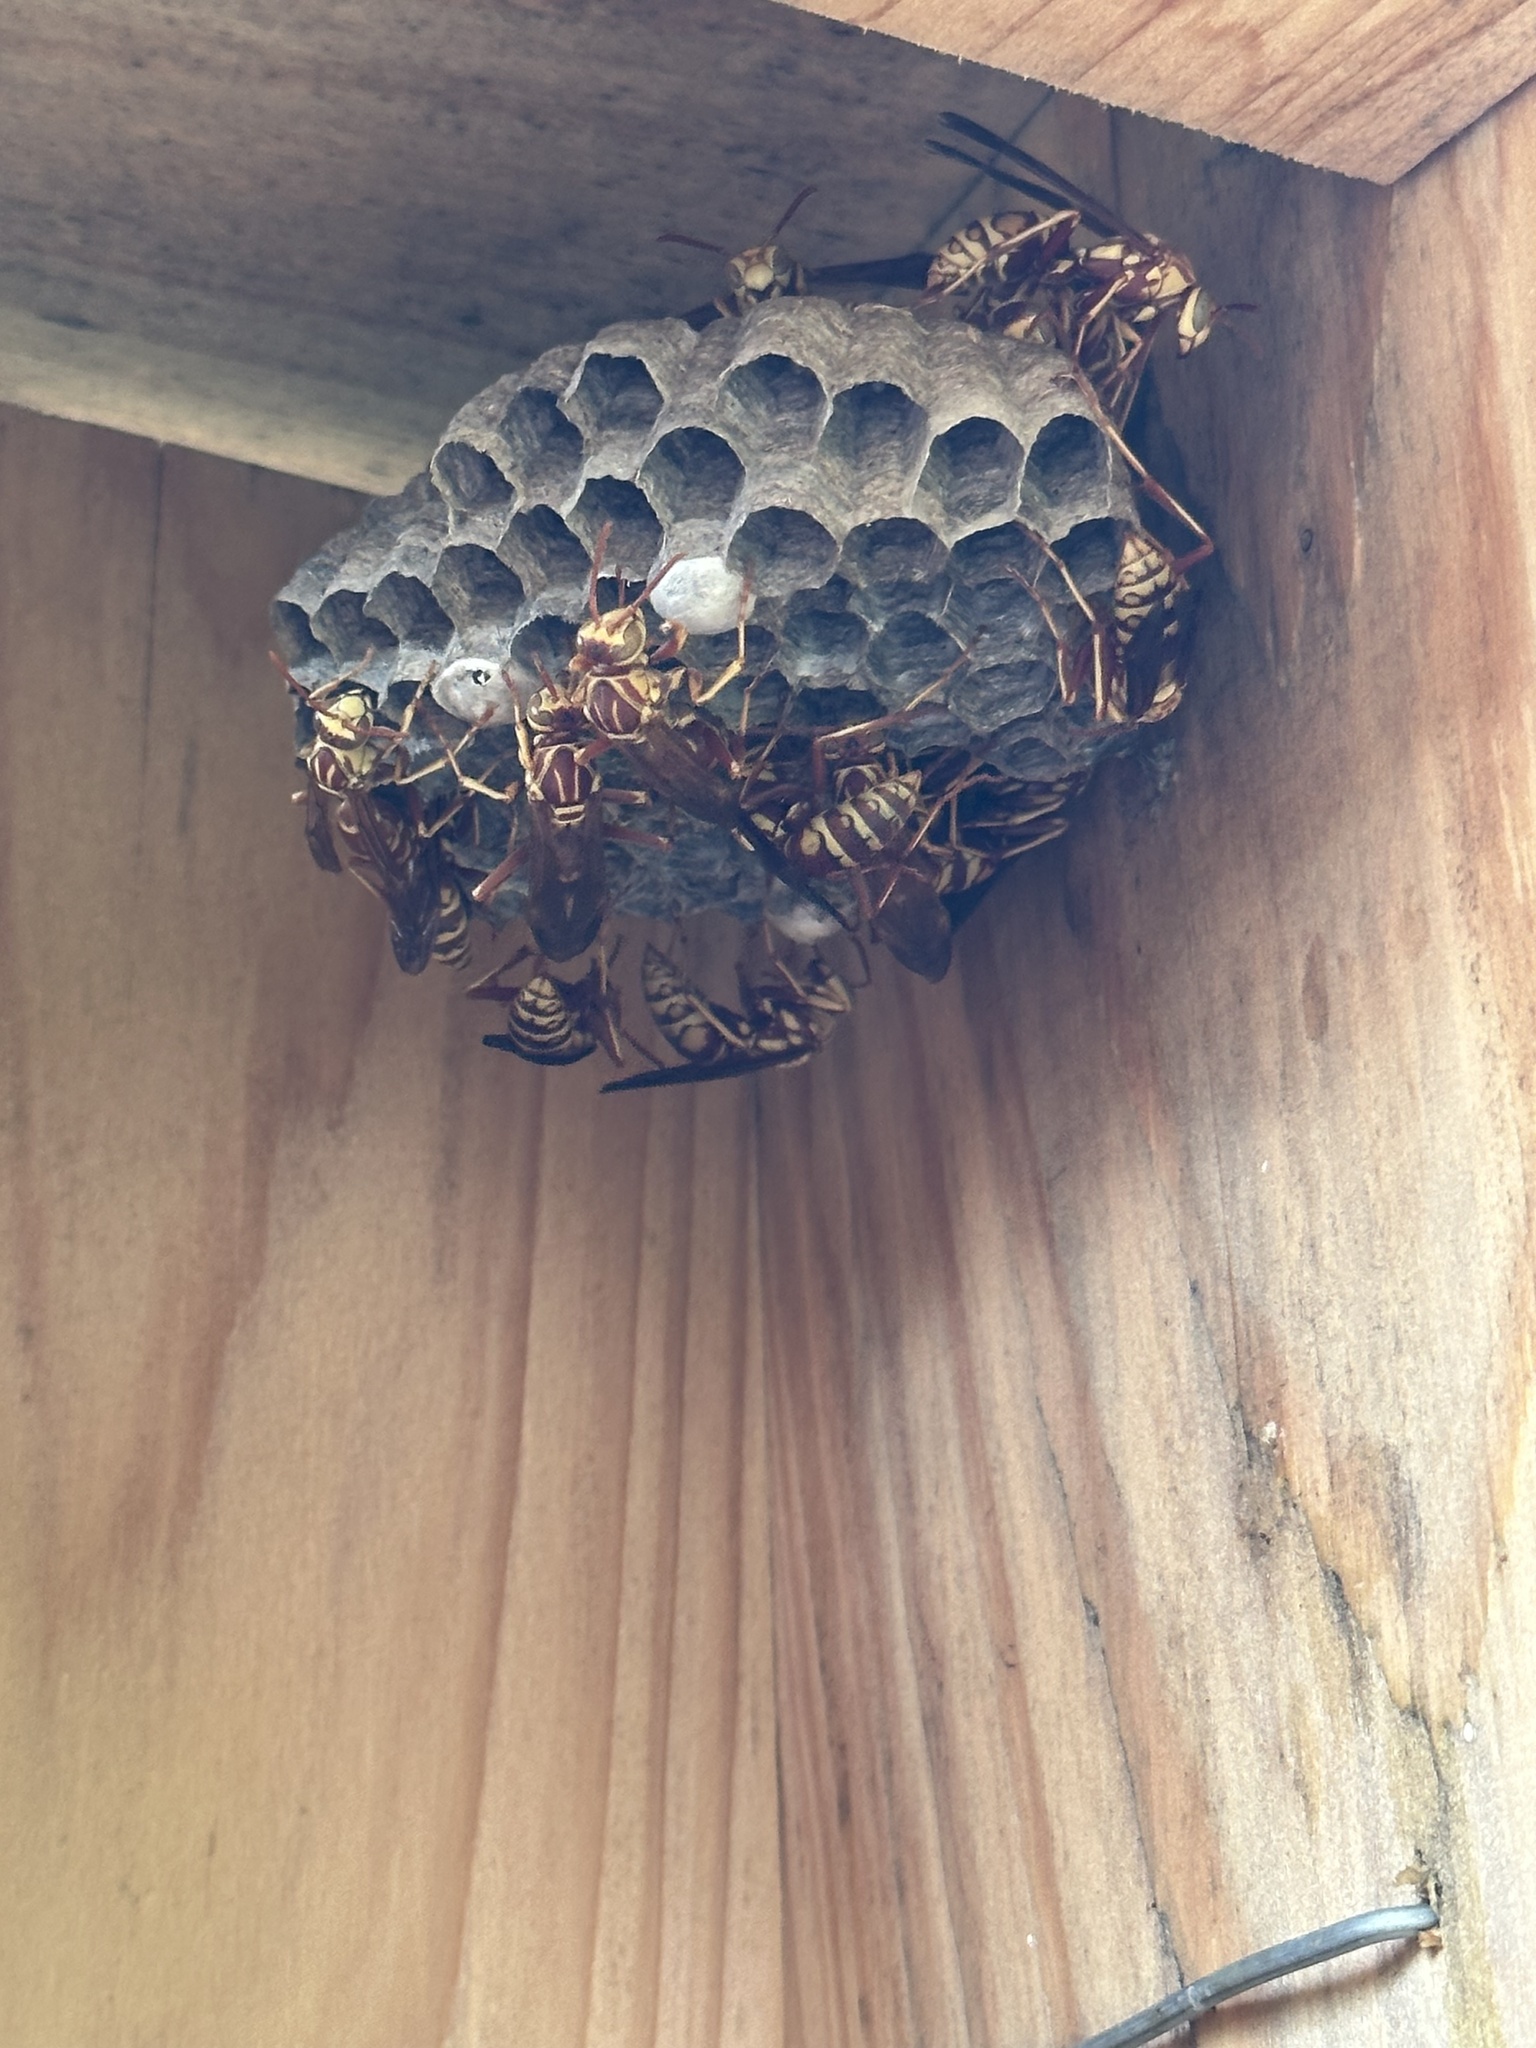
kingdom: Animalia
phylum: Arthropoda
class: Insecta
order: Hymenoptera
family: Eumenidae
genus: Polistes
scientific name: Polistes apachus
